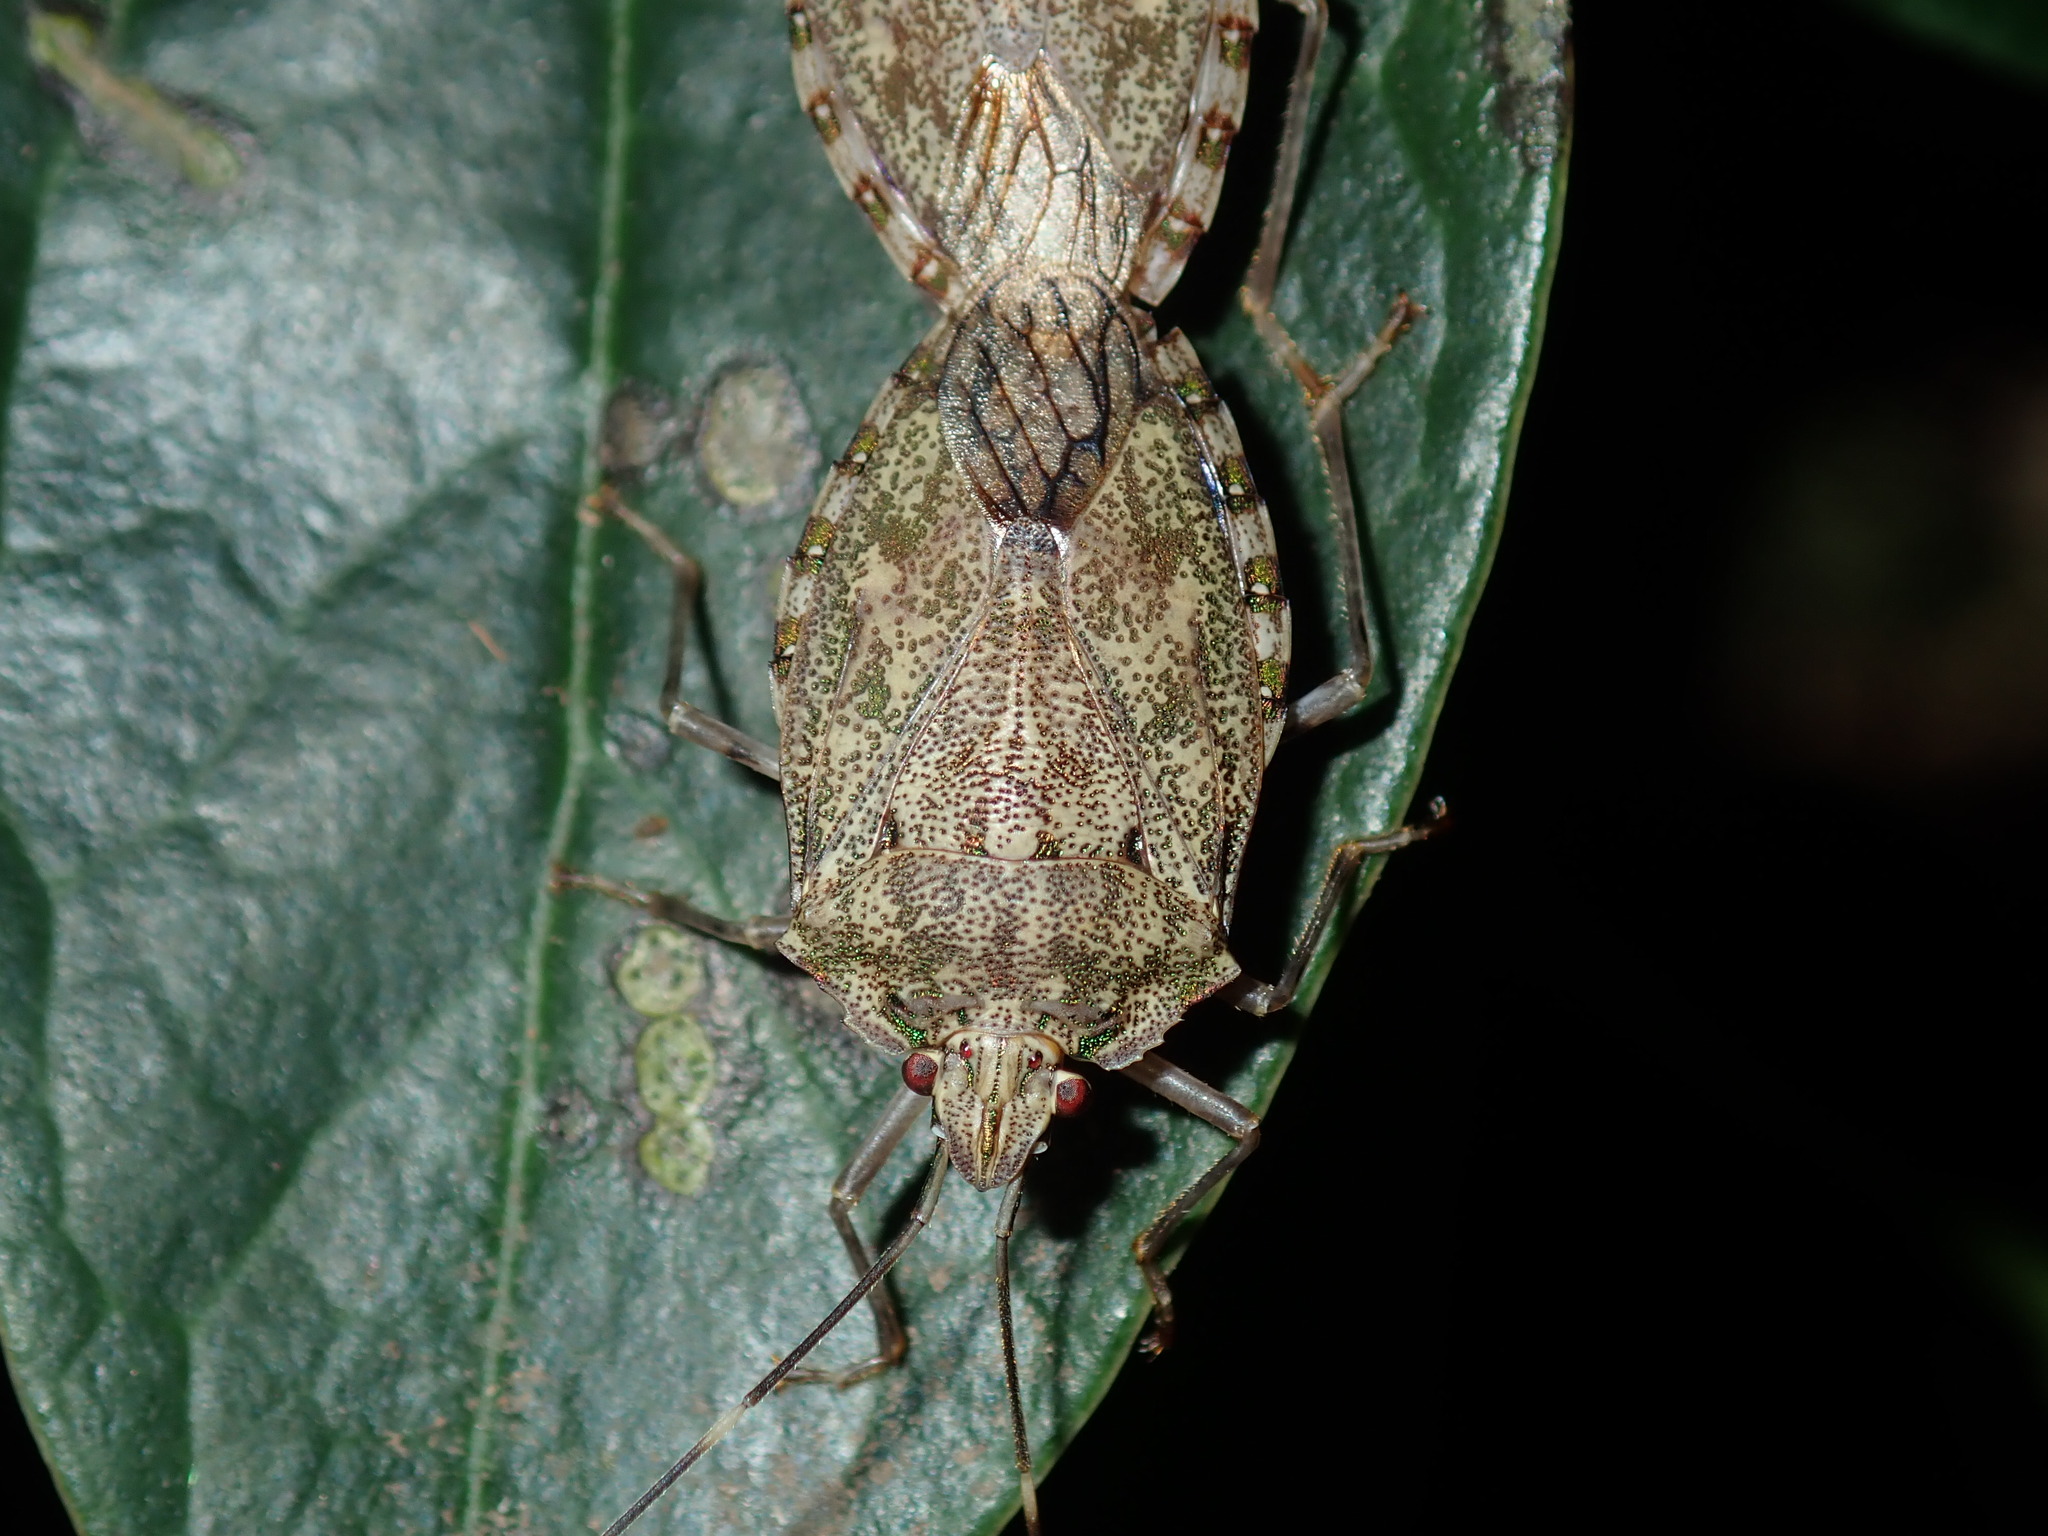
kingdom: Animalia
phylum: Arthropoda
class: Insecta
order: Hemiptera
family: Pentatomidae
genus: Bathrus
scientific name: Bathrus
